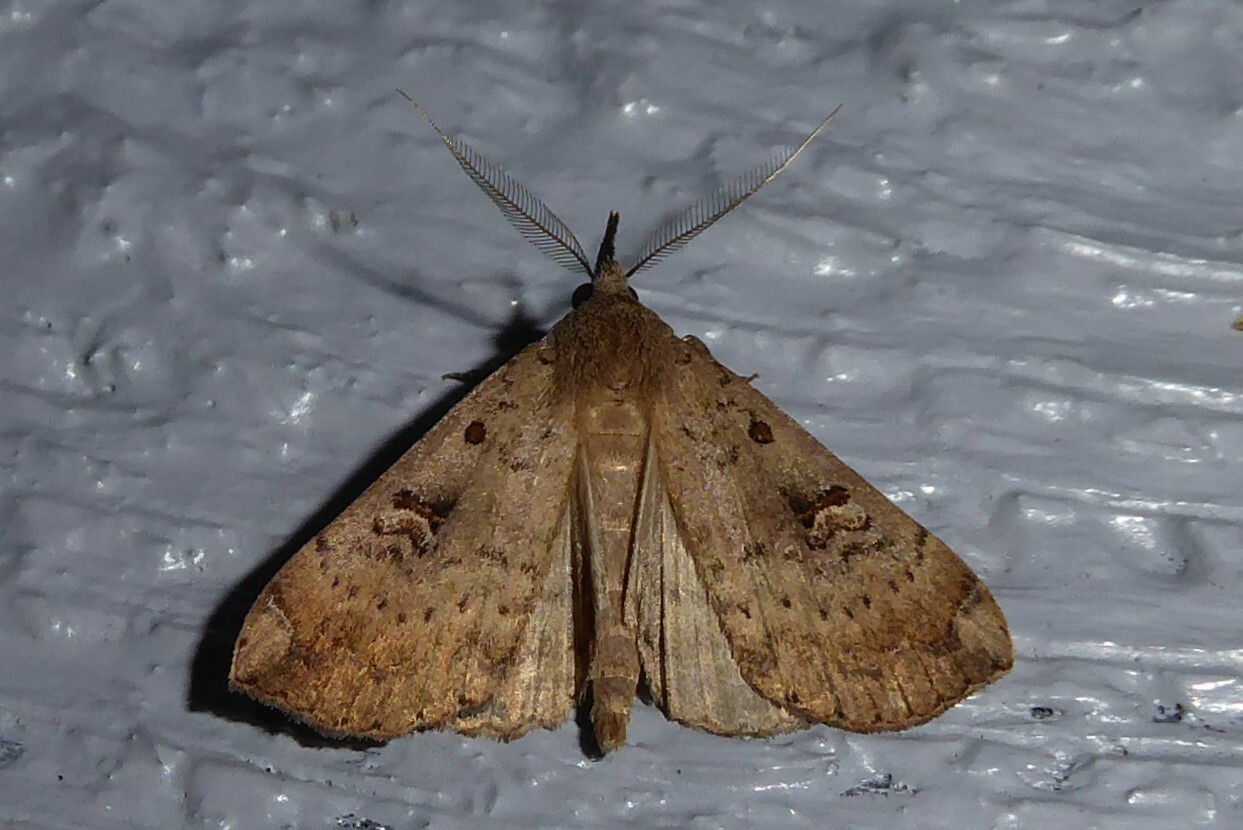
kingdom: Animalia
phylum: Arthropoda
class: Insecta
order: Lepidoptera
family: Erebidae
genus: Rhapsa
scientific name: Rhapsa scotosialis
